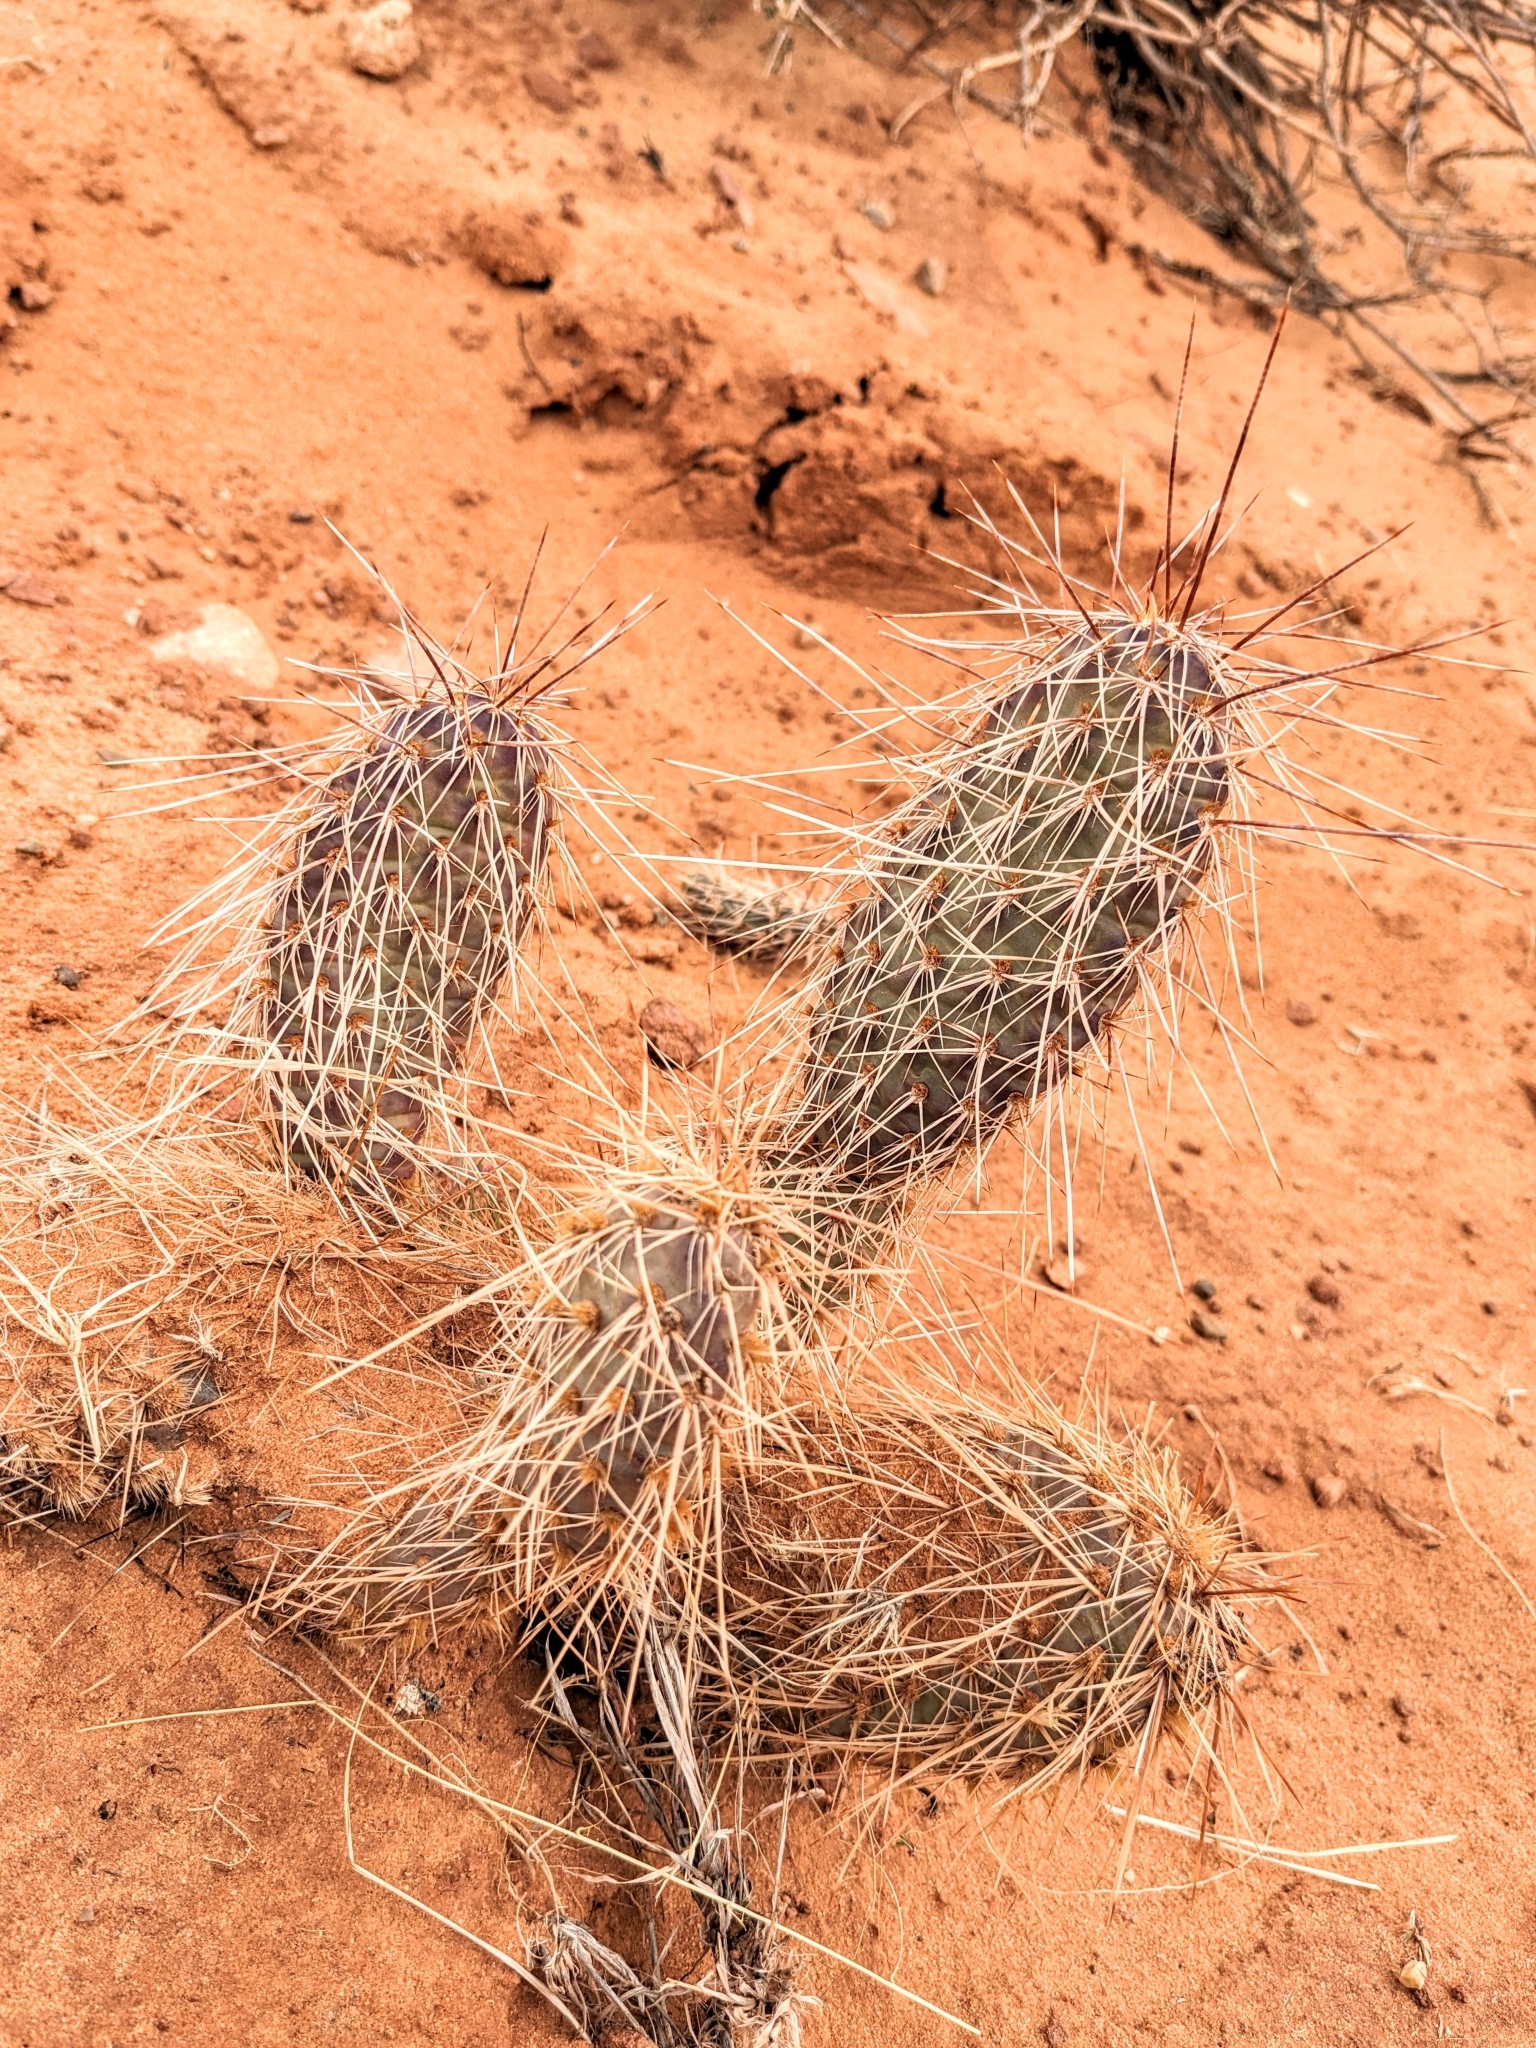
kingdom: Plantae
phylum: Tracheophyta
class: Magnoliopsida
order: Caryophyllales
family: Cactaceae
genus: Opuntia
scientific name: Opuntia polyacantha
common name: Plains prickly-pear
